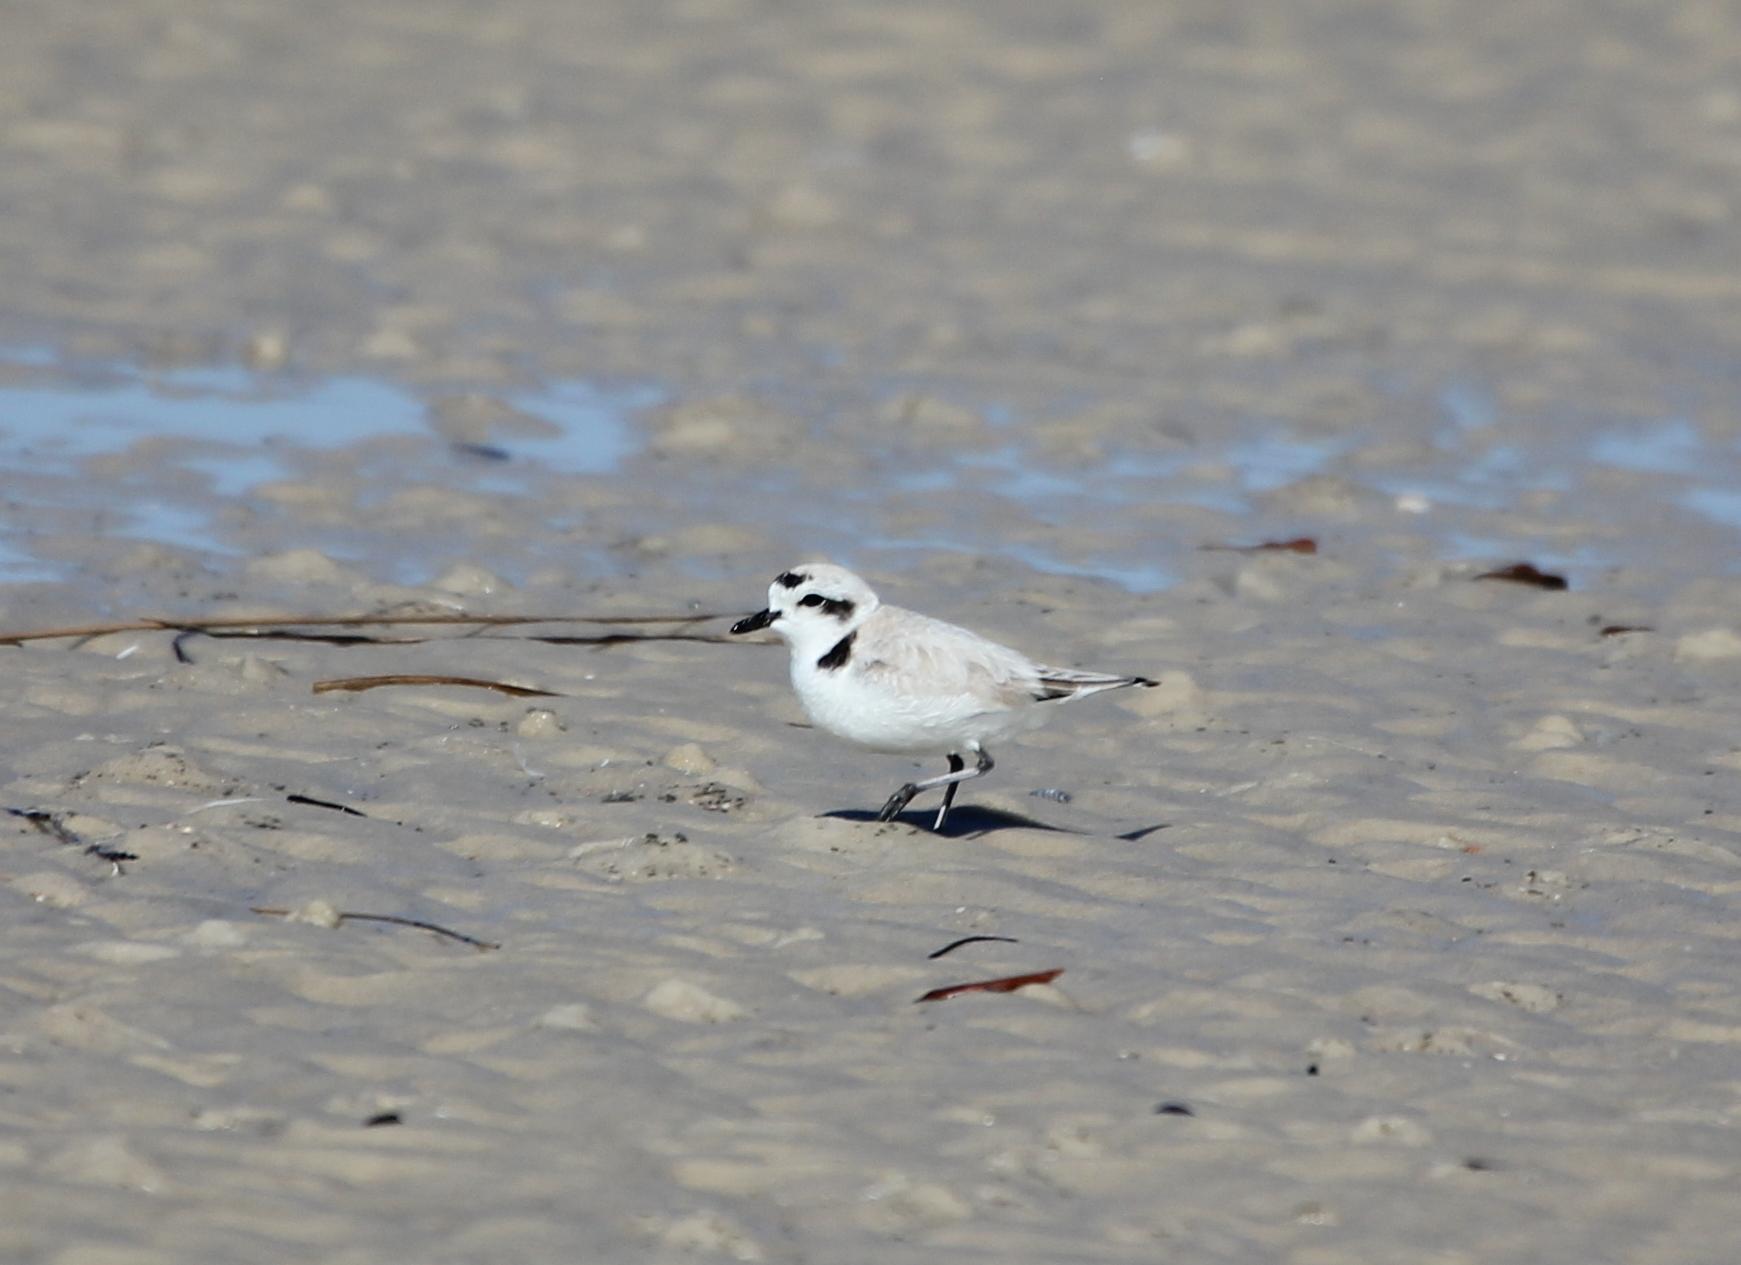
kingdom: Animalia
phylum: Chordata
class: Aves
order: Charadriiformes
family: Charadriidae
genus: Anarhynchus
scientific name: Anarhynchus
